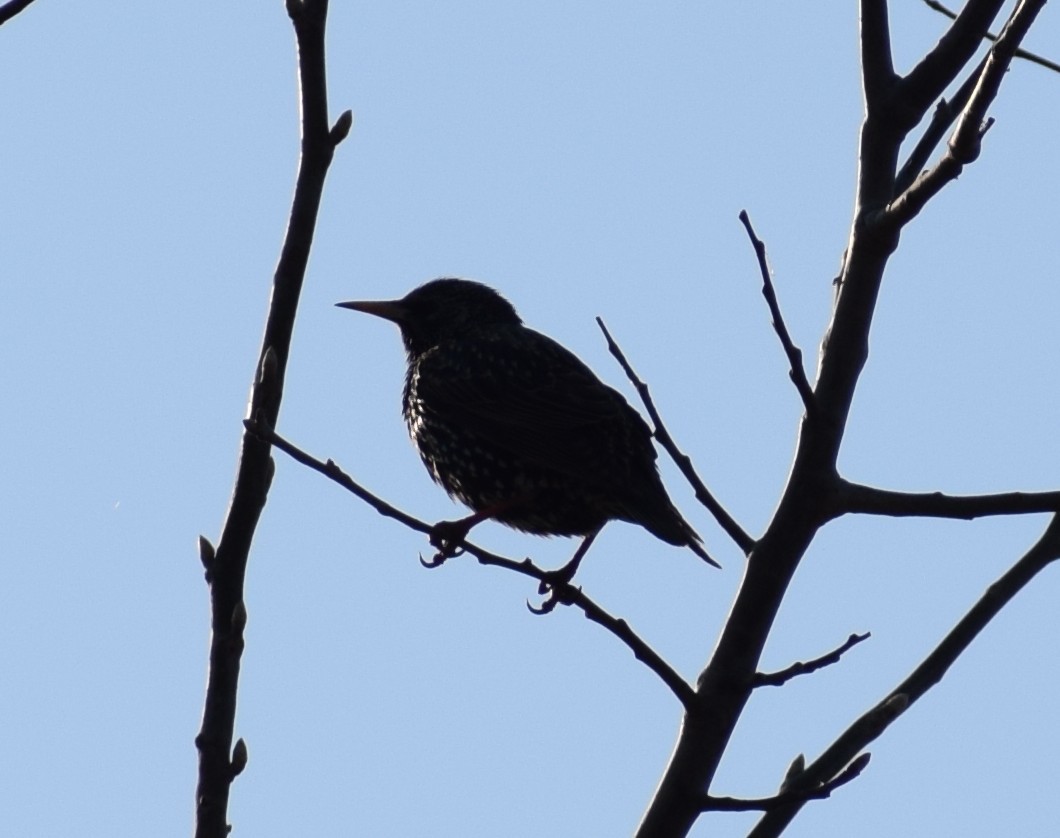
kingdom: Animalia
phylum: Chordata
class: Aves
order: Passeriformes
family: Sturnidae
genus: Sturnus
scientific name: Sturnus vulgaris
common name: Common starling
